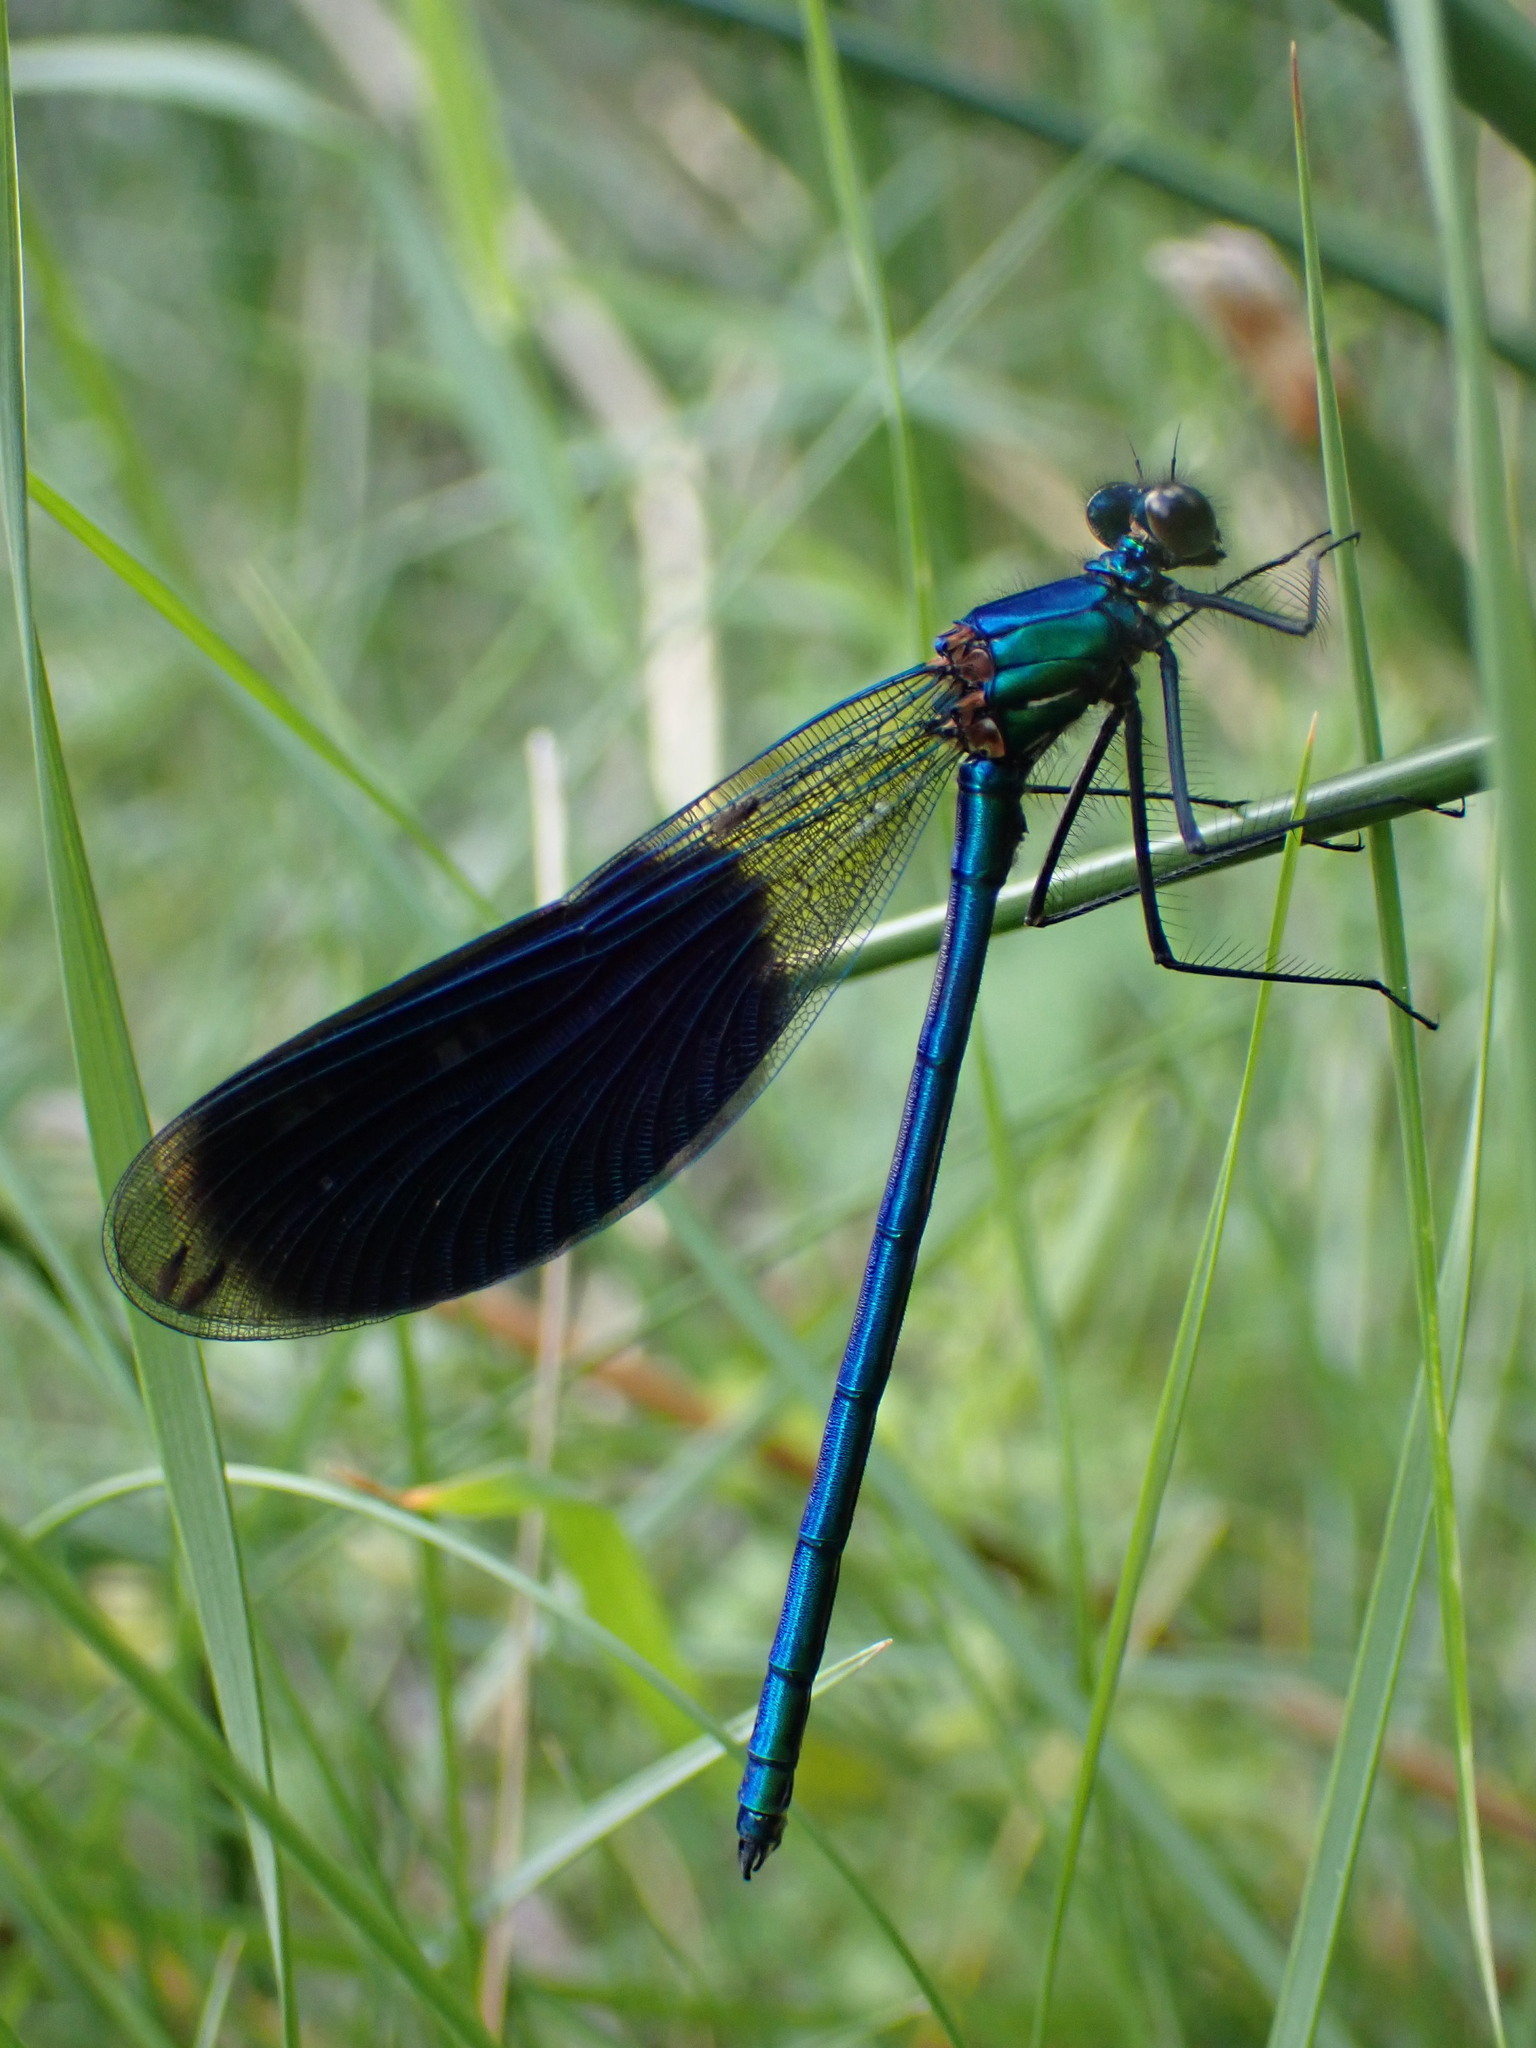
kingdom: Animalia
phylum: Arthropoda
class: Insecta
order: Odonata
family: Calopterygidae
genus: Calopteryx
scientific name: Calopteryx splendens
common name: Banded demoiselle
